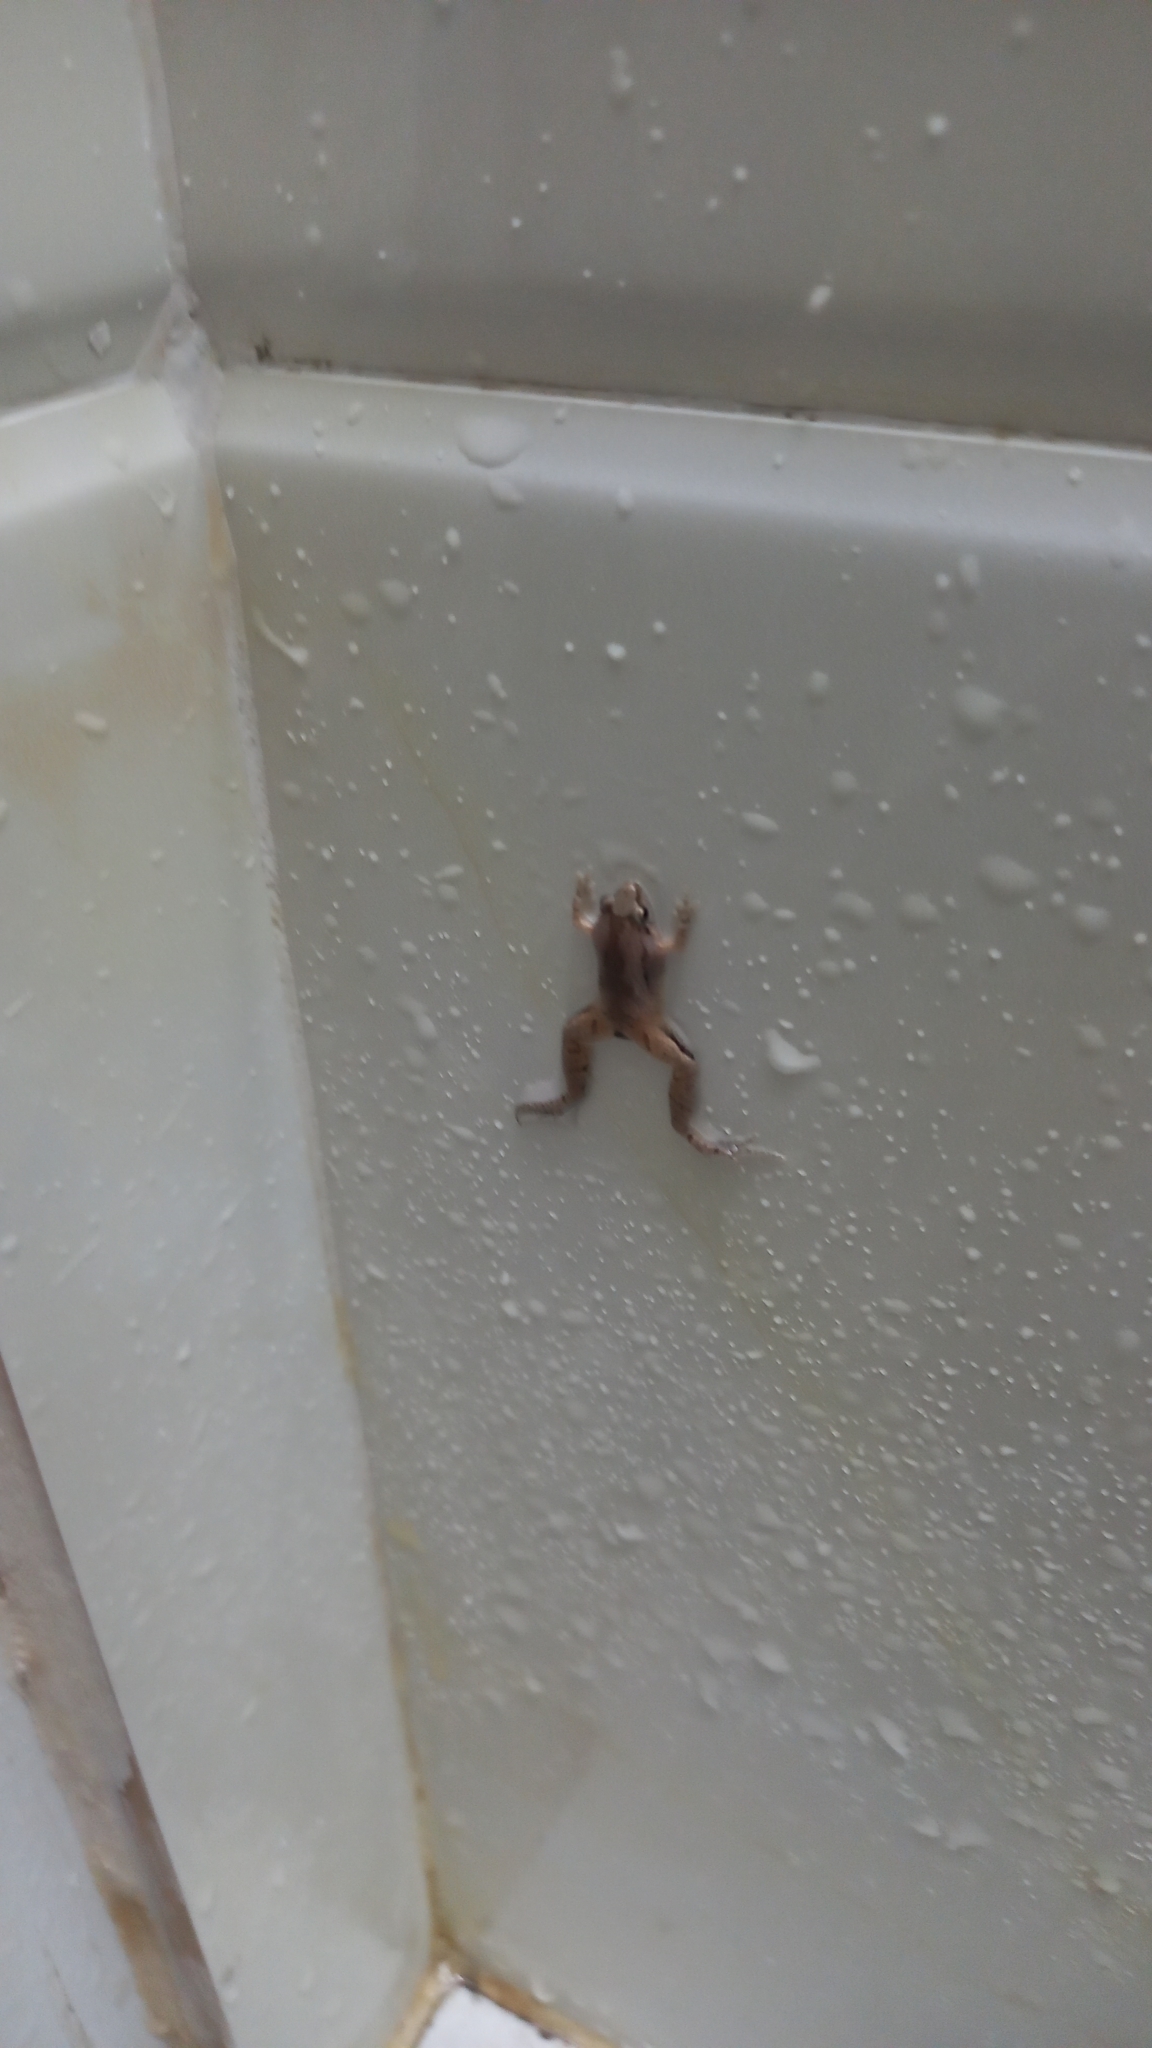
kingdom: Animalia
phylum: Chordata
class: Amphibia
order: Anura
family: Microhylidae
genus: Microhyla
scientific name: Microhyla mukhlesuri
